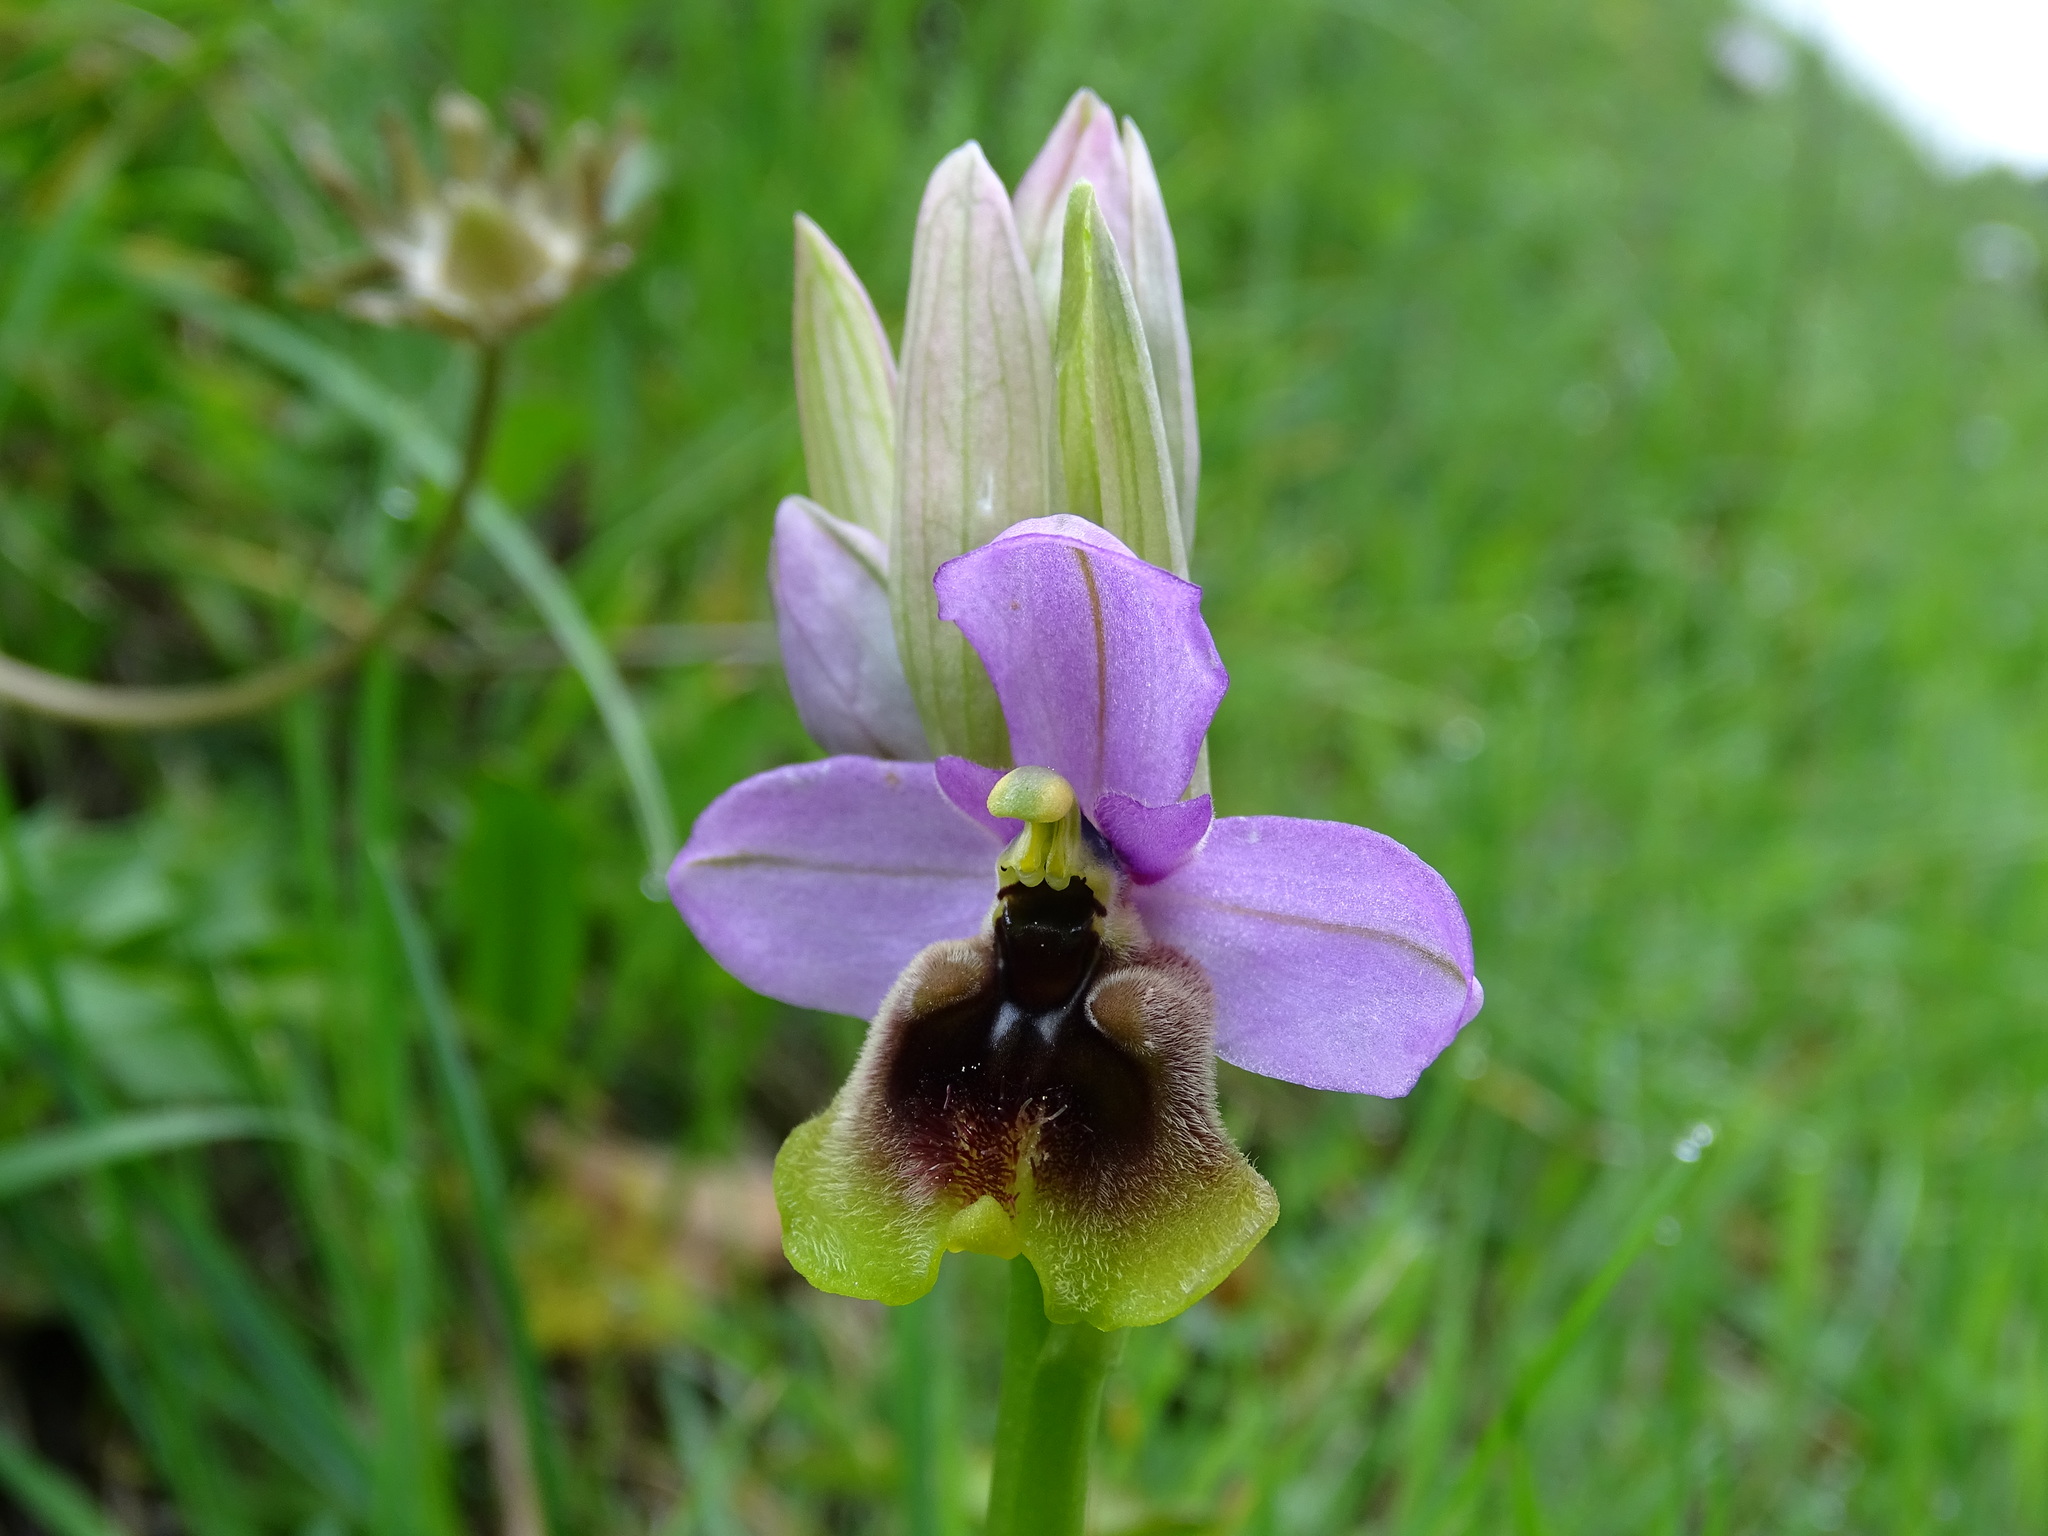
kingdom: Plantae
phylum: Tracheophyta
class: Liliopsida
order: Asparagales
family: Orchidaceae
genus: Ophrys
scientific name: Ophrys tenthredinifera
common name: Sawfly orchid
